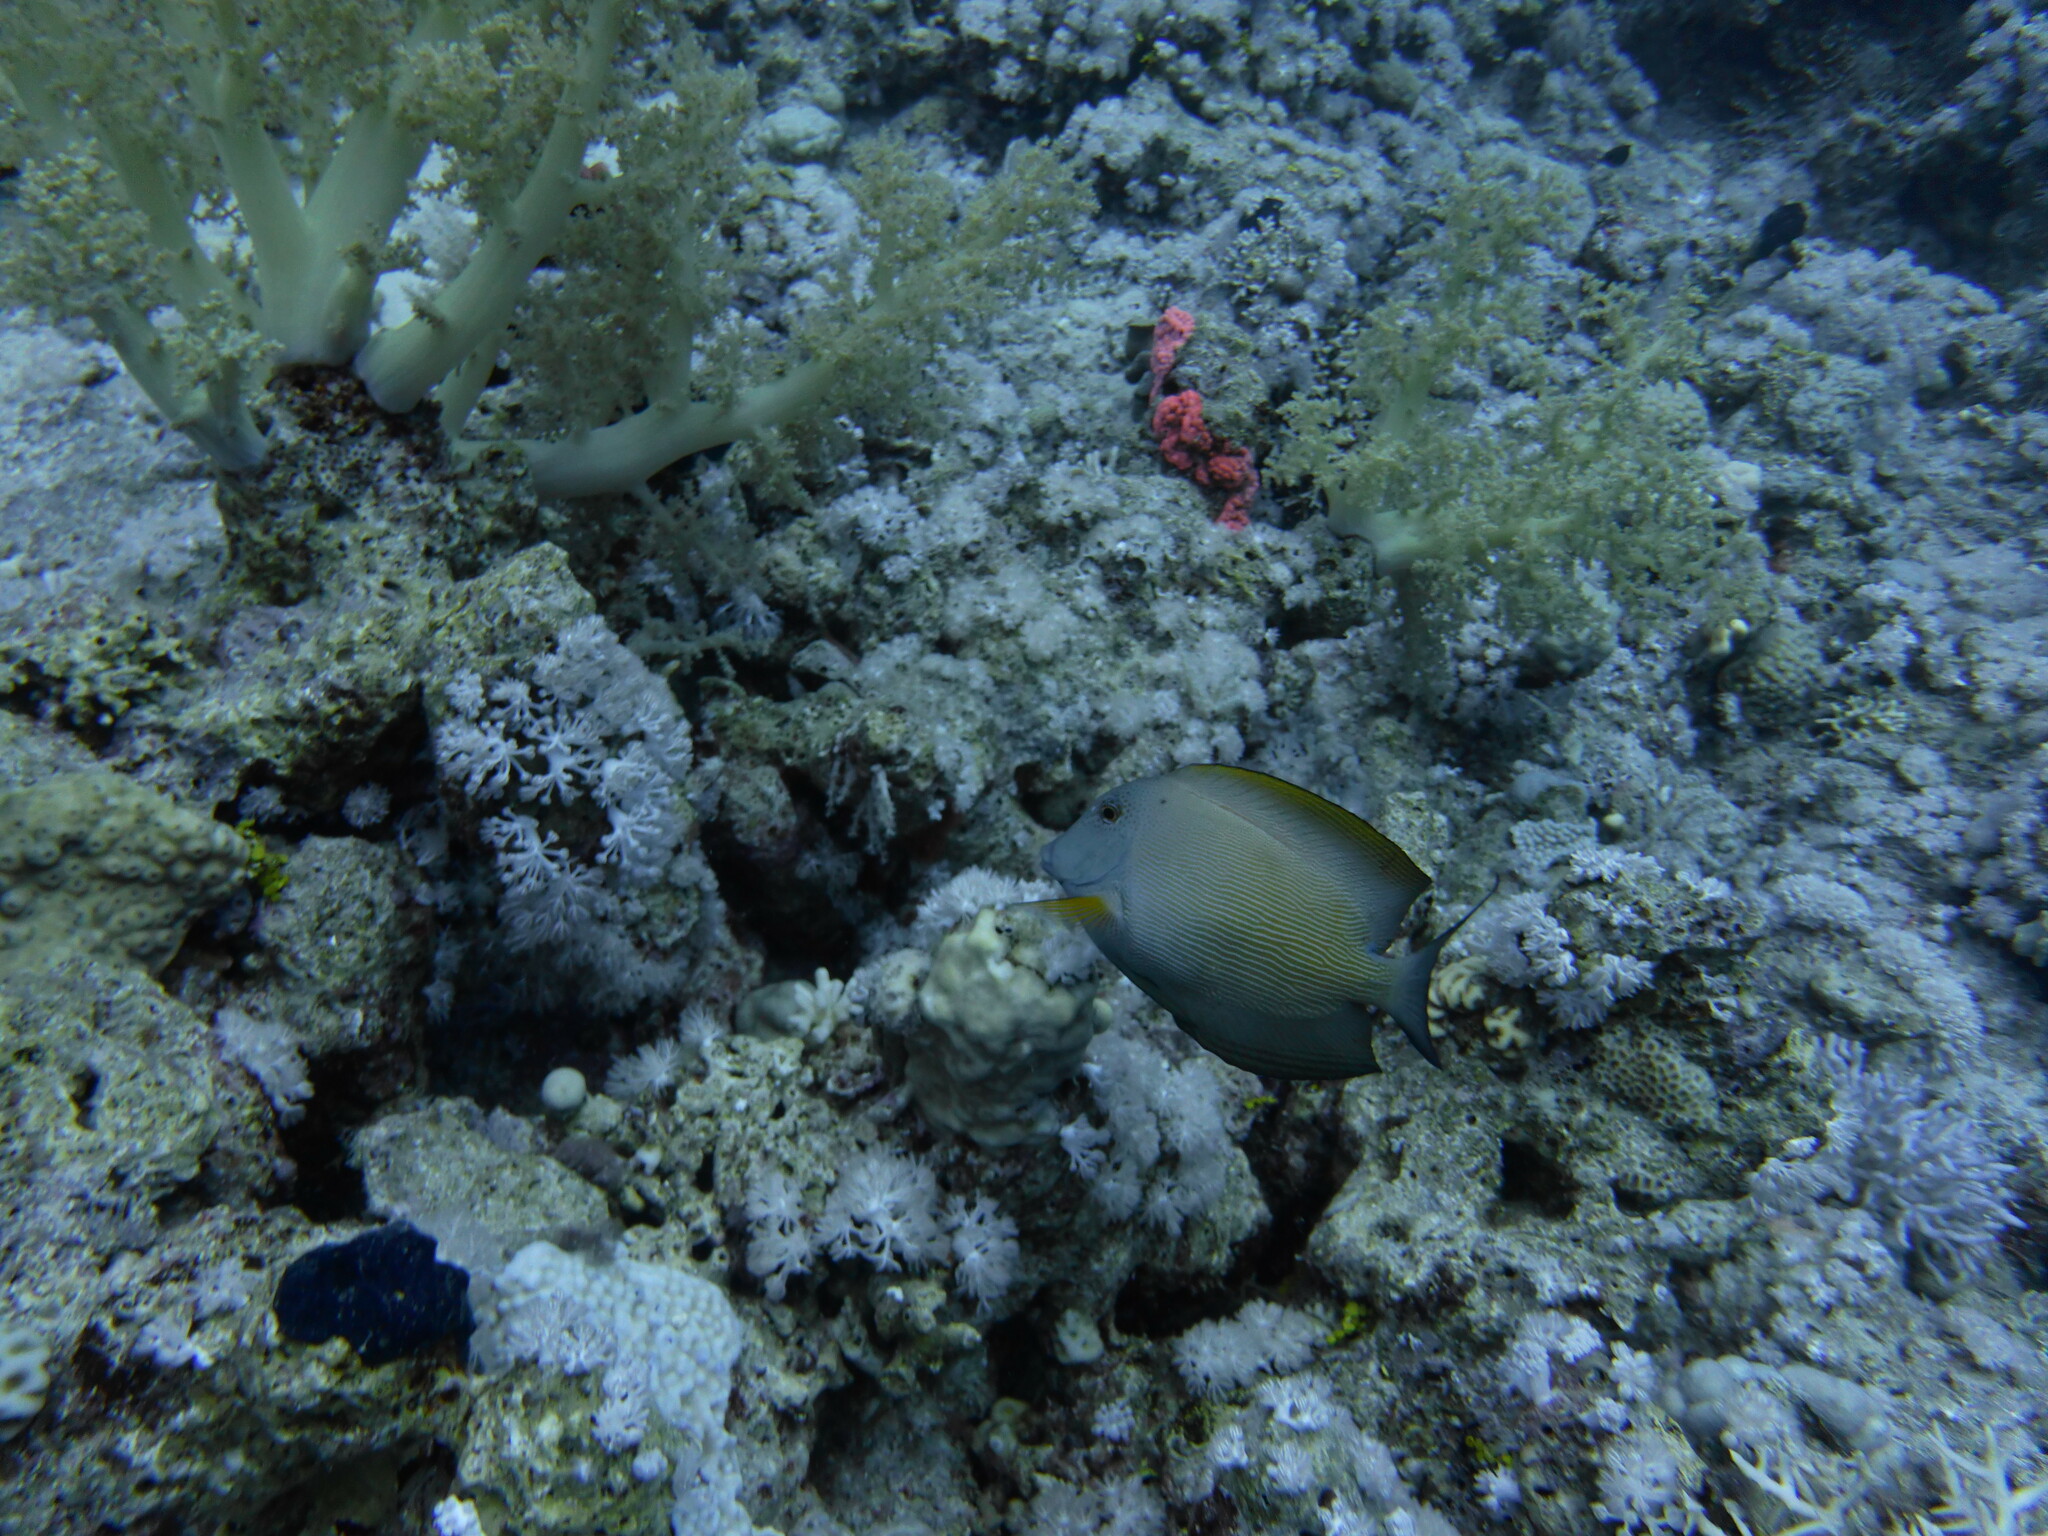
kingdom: Animalia
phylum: Chordata
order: Perciformes
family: Acanthuridae
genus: Ctenochaetus
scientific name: Ctenochaetus striatus
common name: Bristle-toothed surgeonfish
